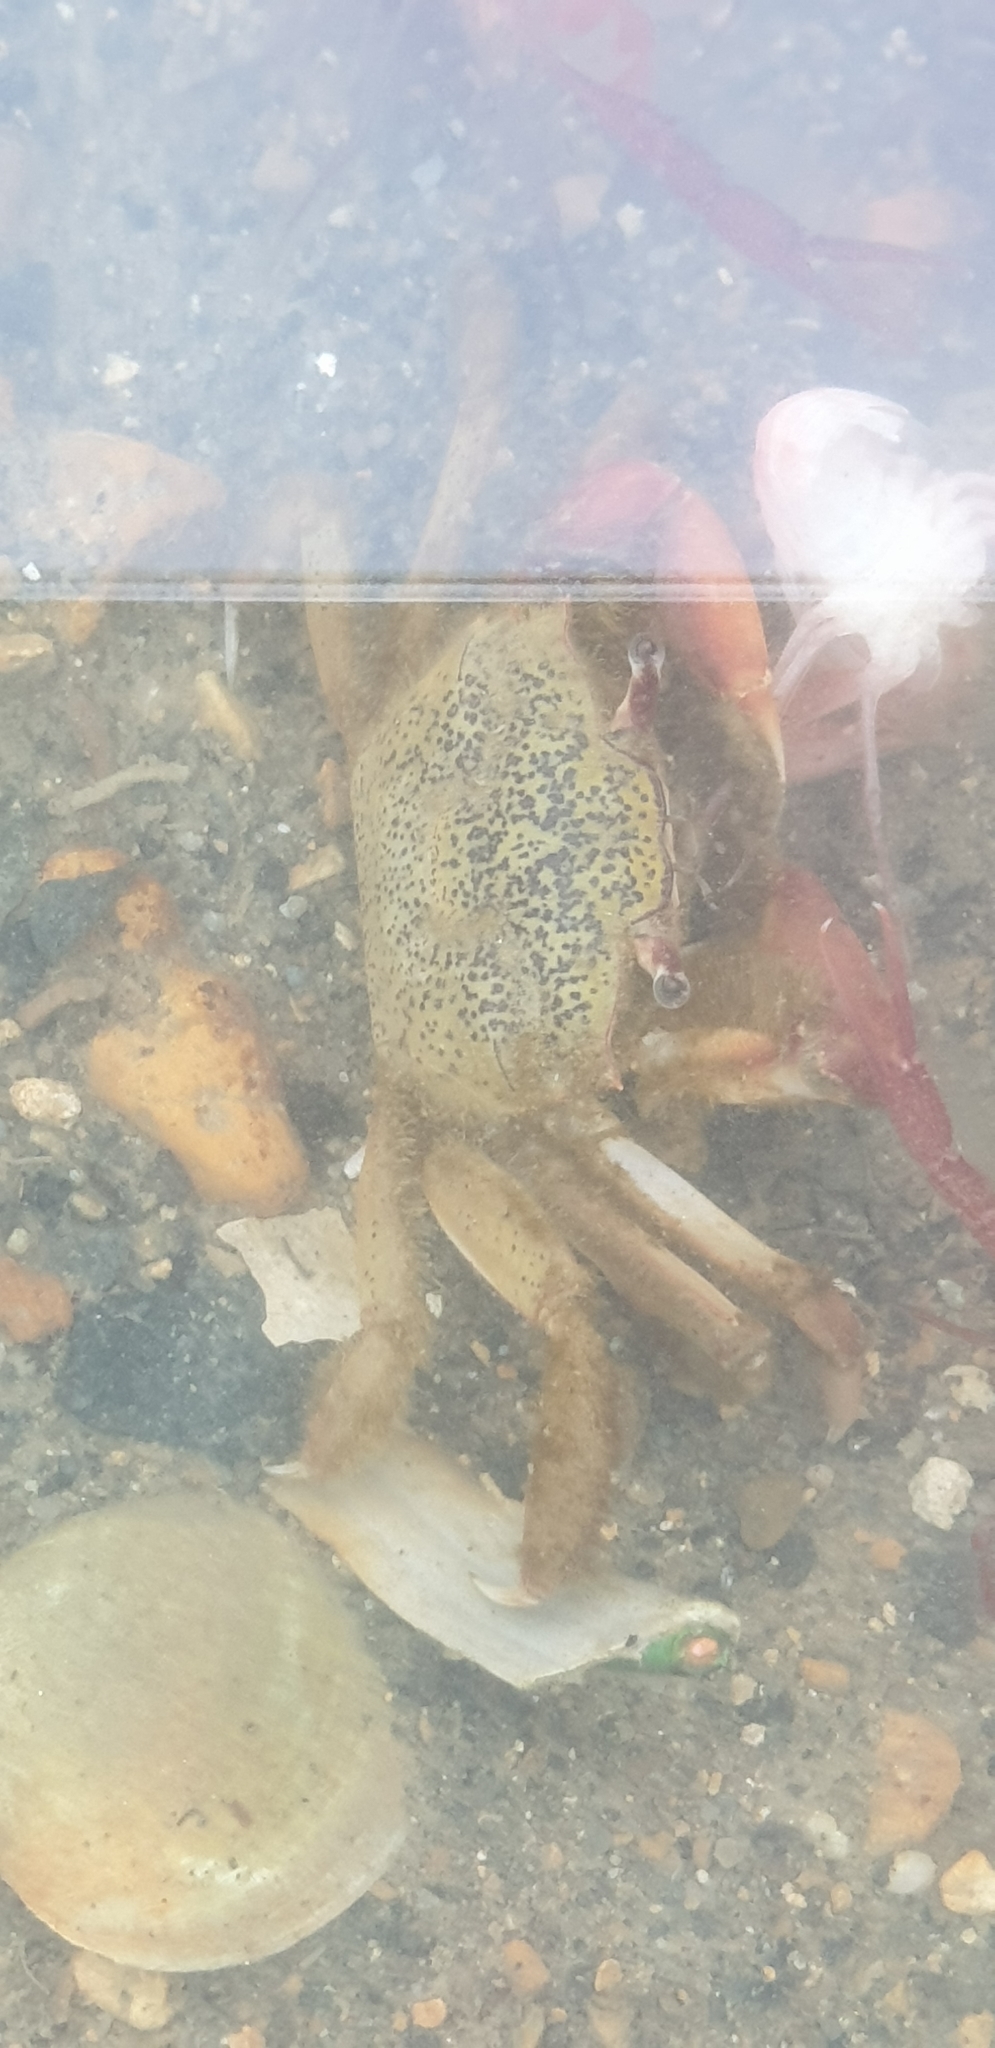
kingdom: Animalia
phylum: Arthropoda
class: Malacostraca
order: Decapoda
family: Macrophthalmidae
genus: Hemiplax
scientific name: Hemiplax hirtipes
